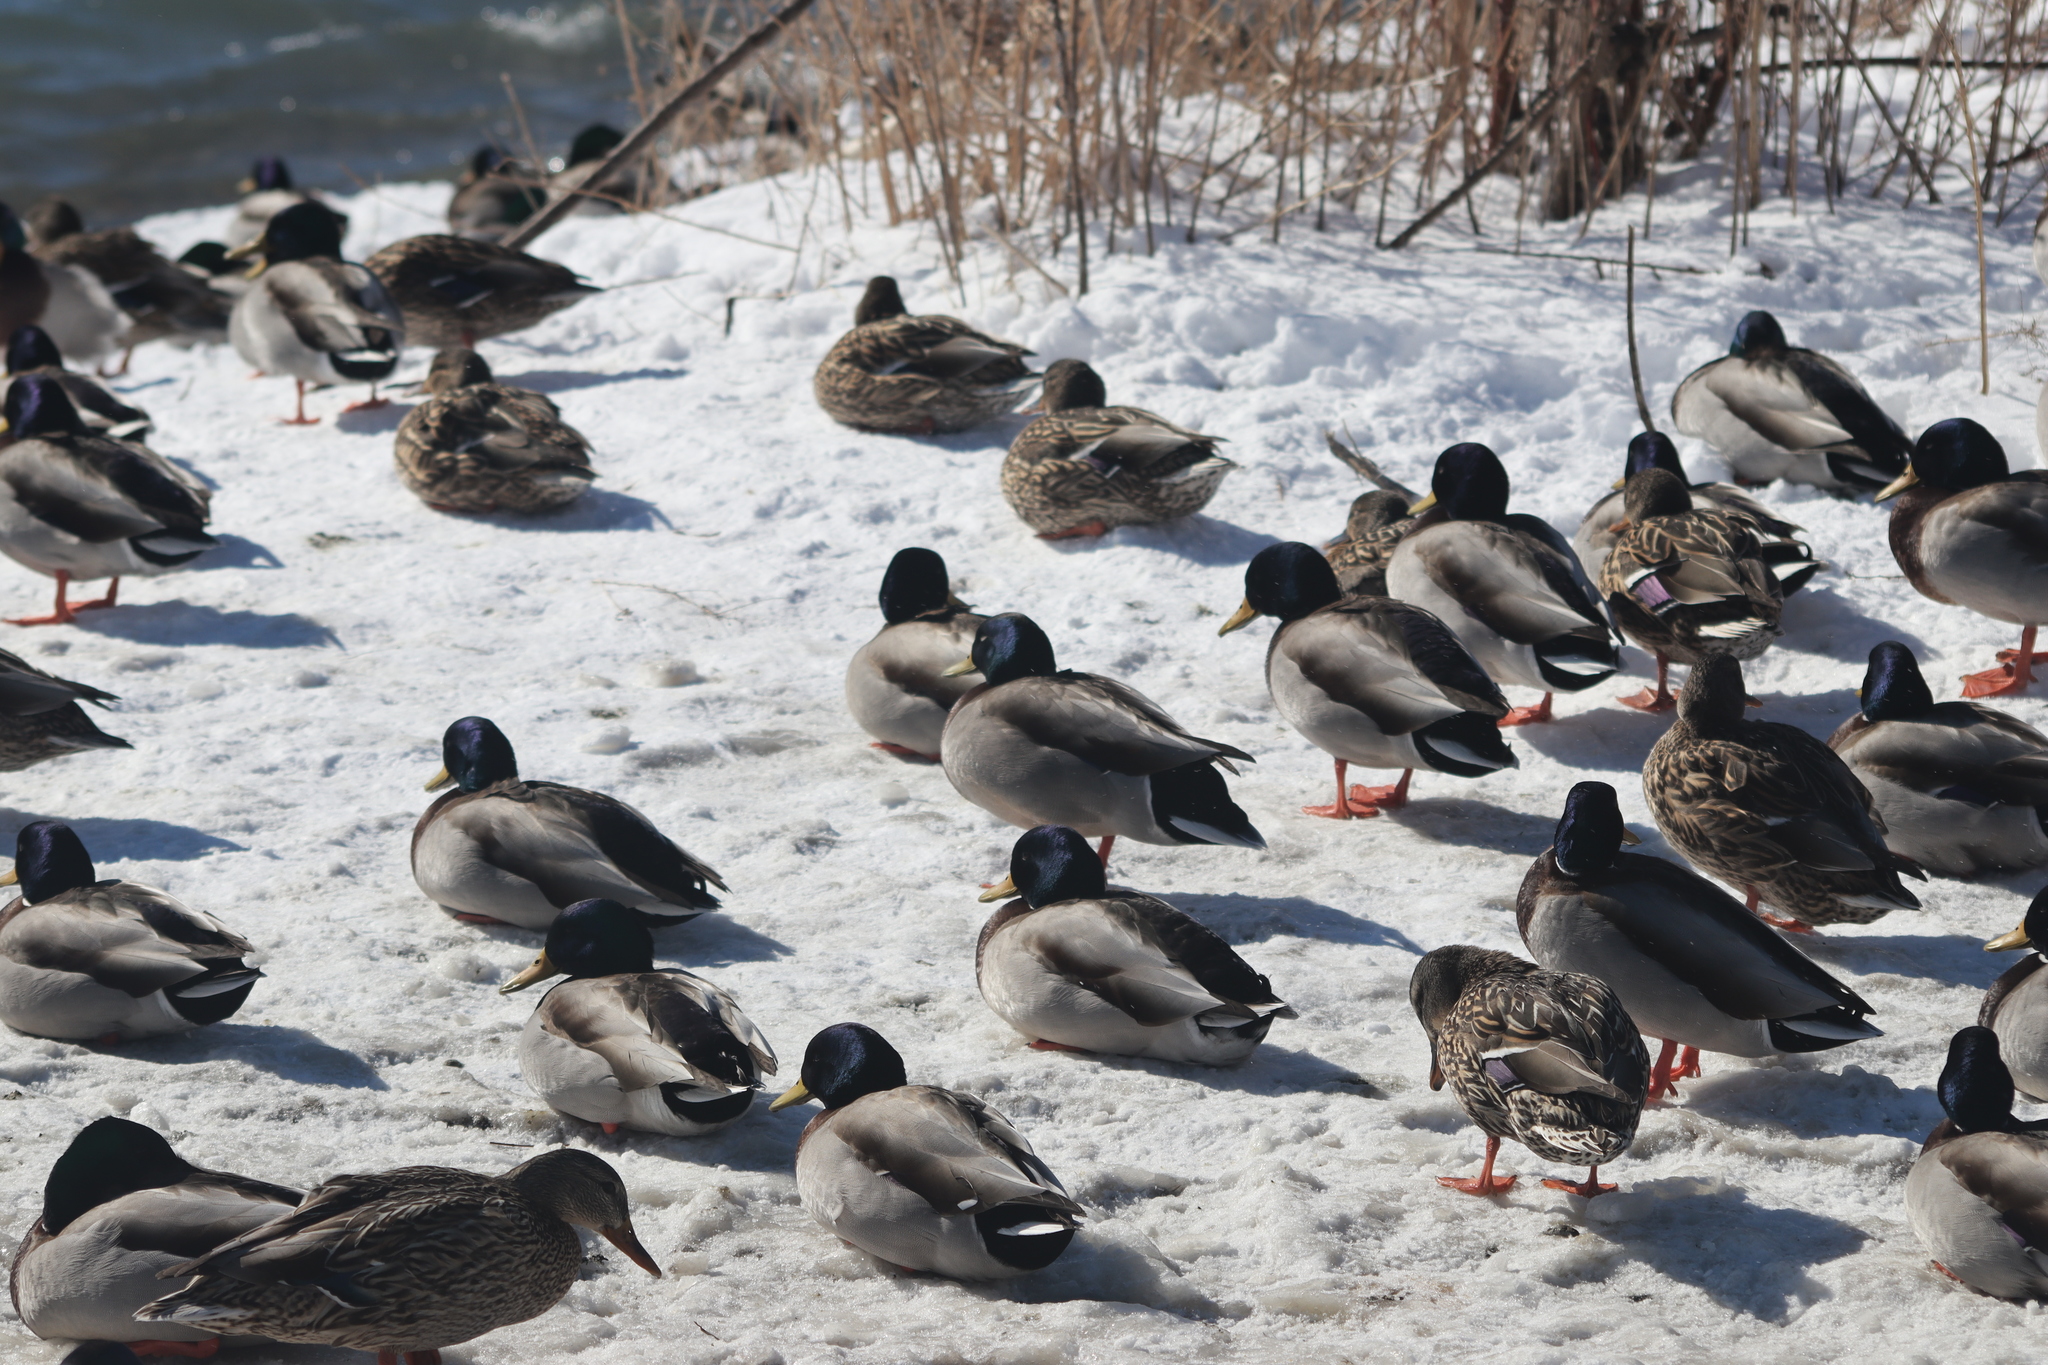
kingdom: Animalia
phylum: Chordata
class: Aves
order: Anseriformes
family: Anatidae
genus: Anas
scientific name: Anas platyrhynchos
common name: Mallard
